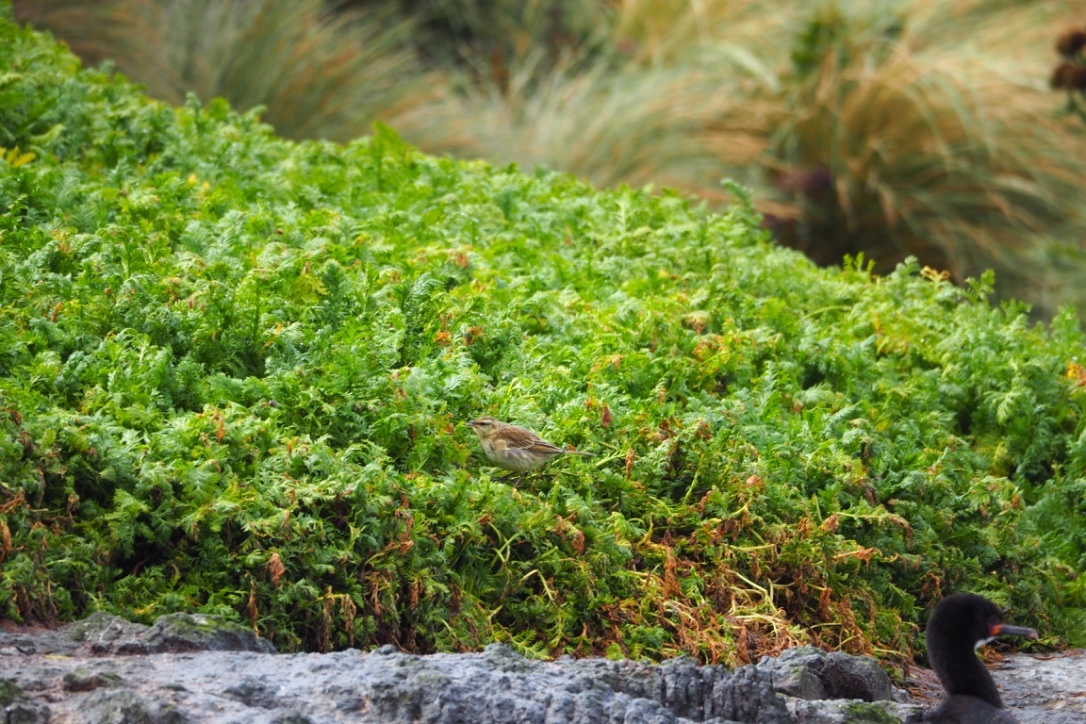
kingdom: Animalia
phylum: Chordata
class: Aves
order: Passeriformes
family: Motacillidae
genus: Anthus
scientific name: Anthus novaeseelandiae
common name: New zealand pipit
